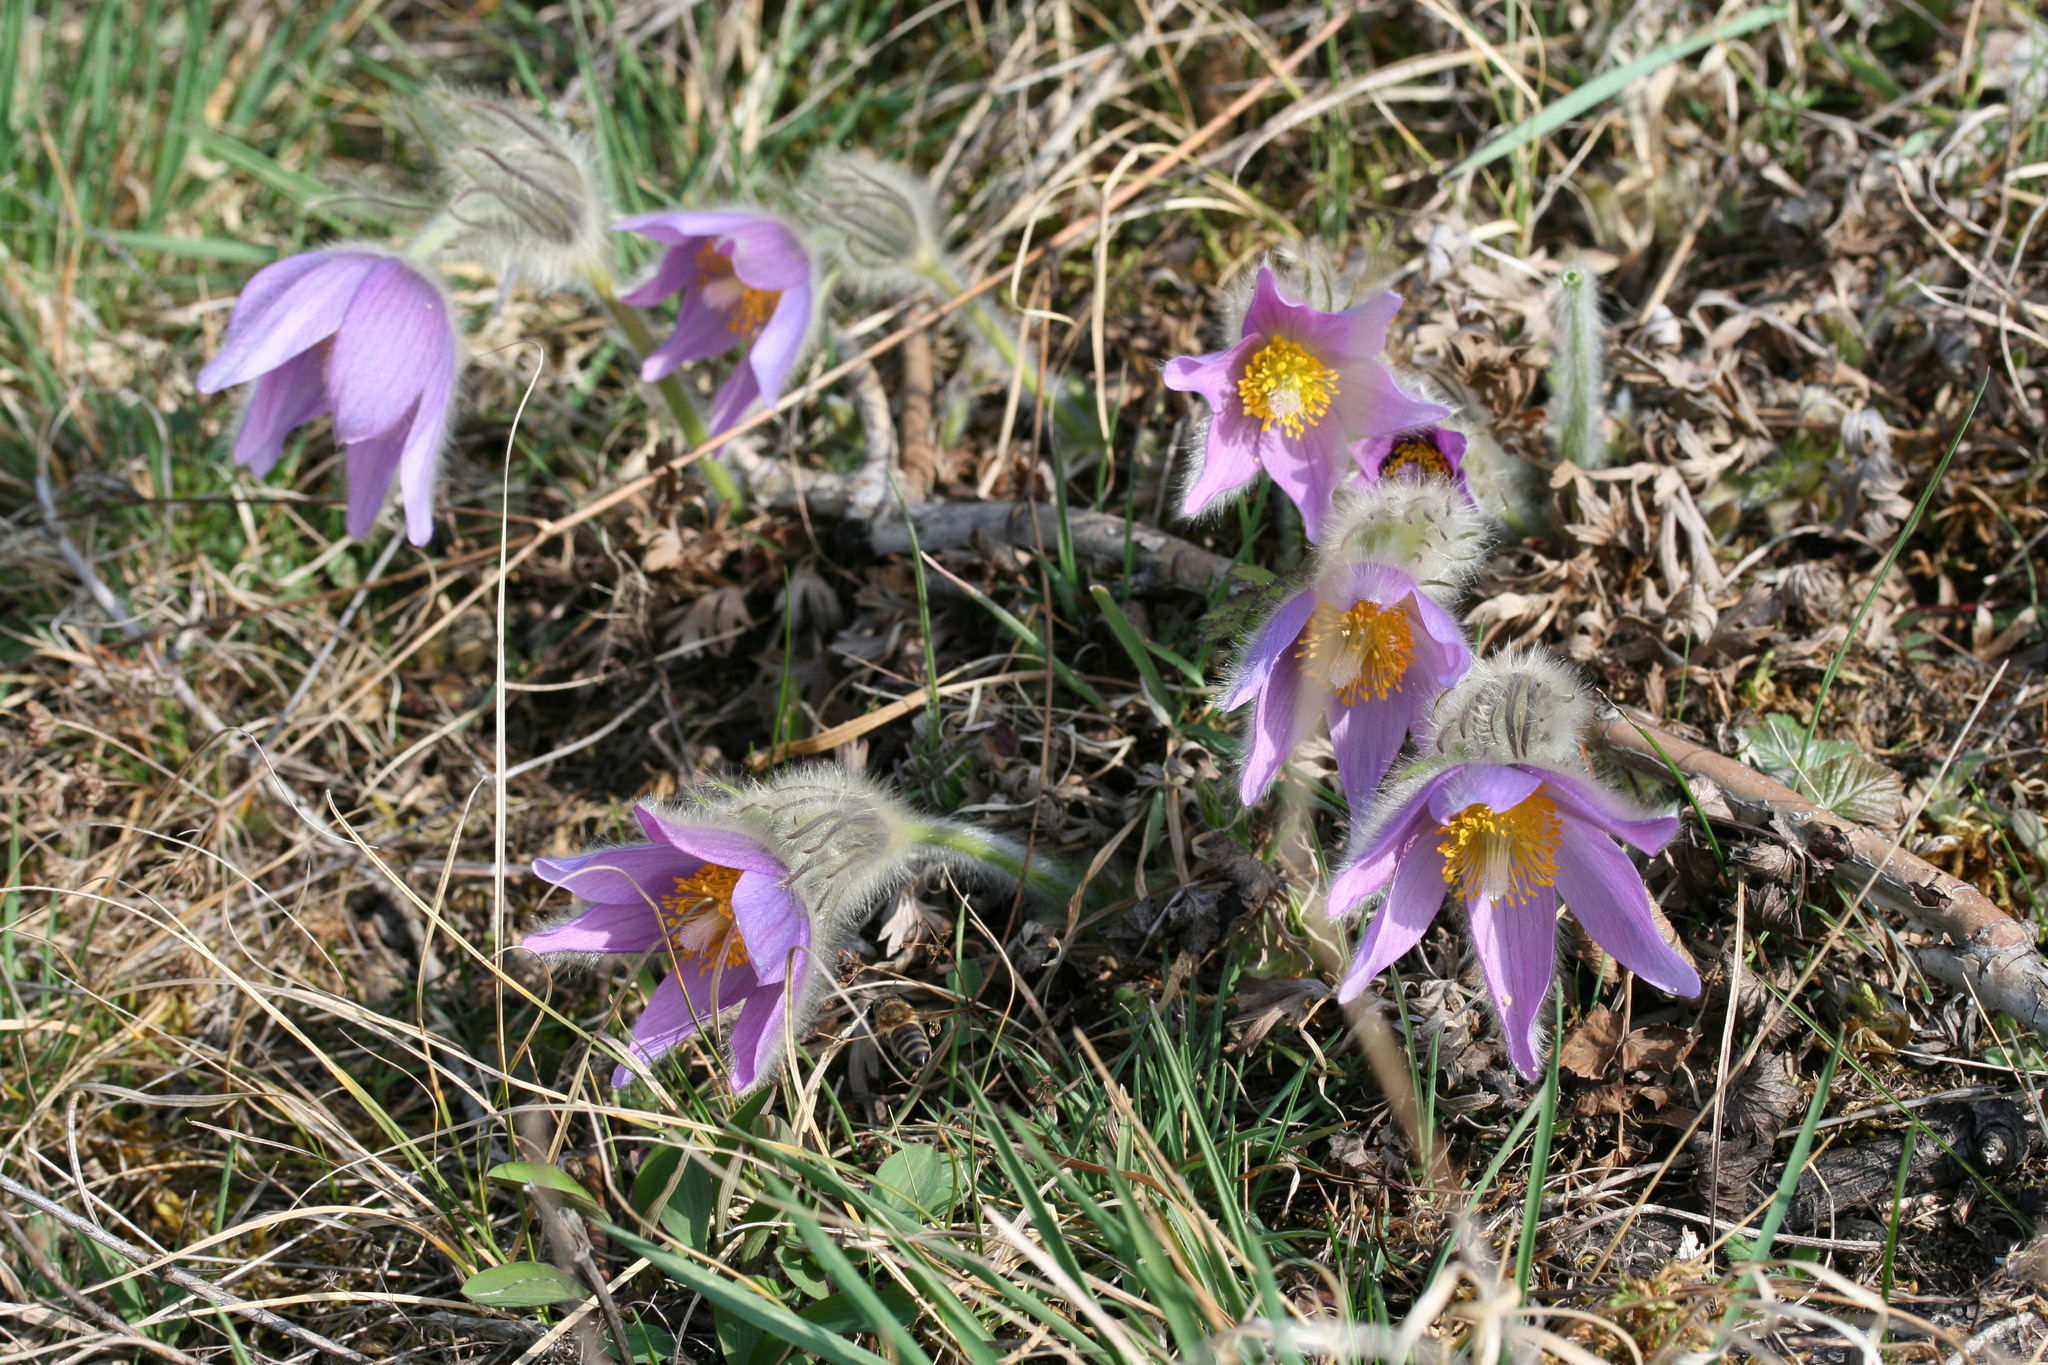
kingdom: Plantae
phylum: Tracheophyta
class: Magnoliopsida
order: Ranunculales
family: Ranunculaceae
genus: Pulsatilla
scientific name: Pulsatilla grandis
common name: Greater pasque flower
